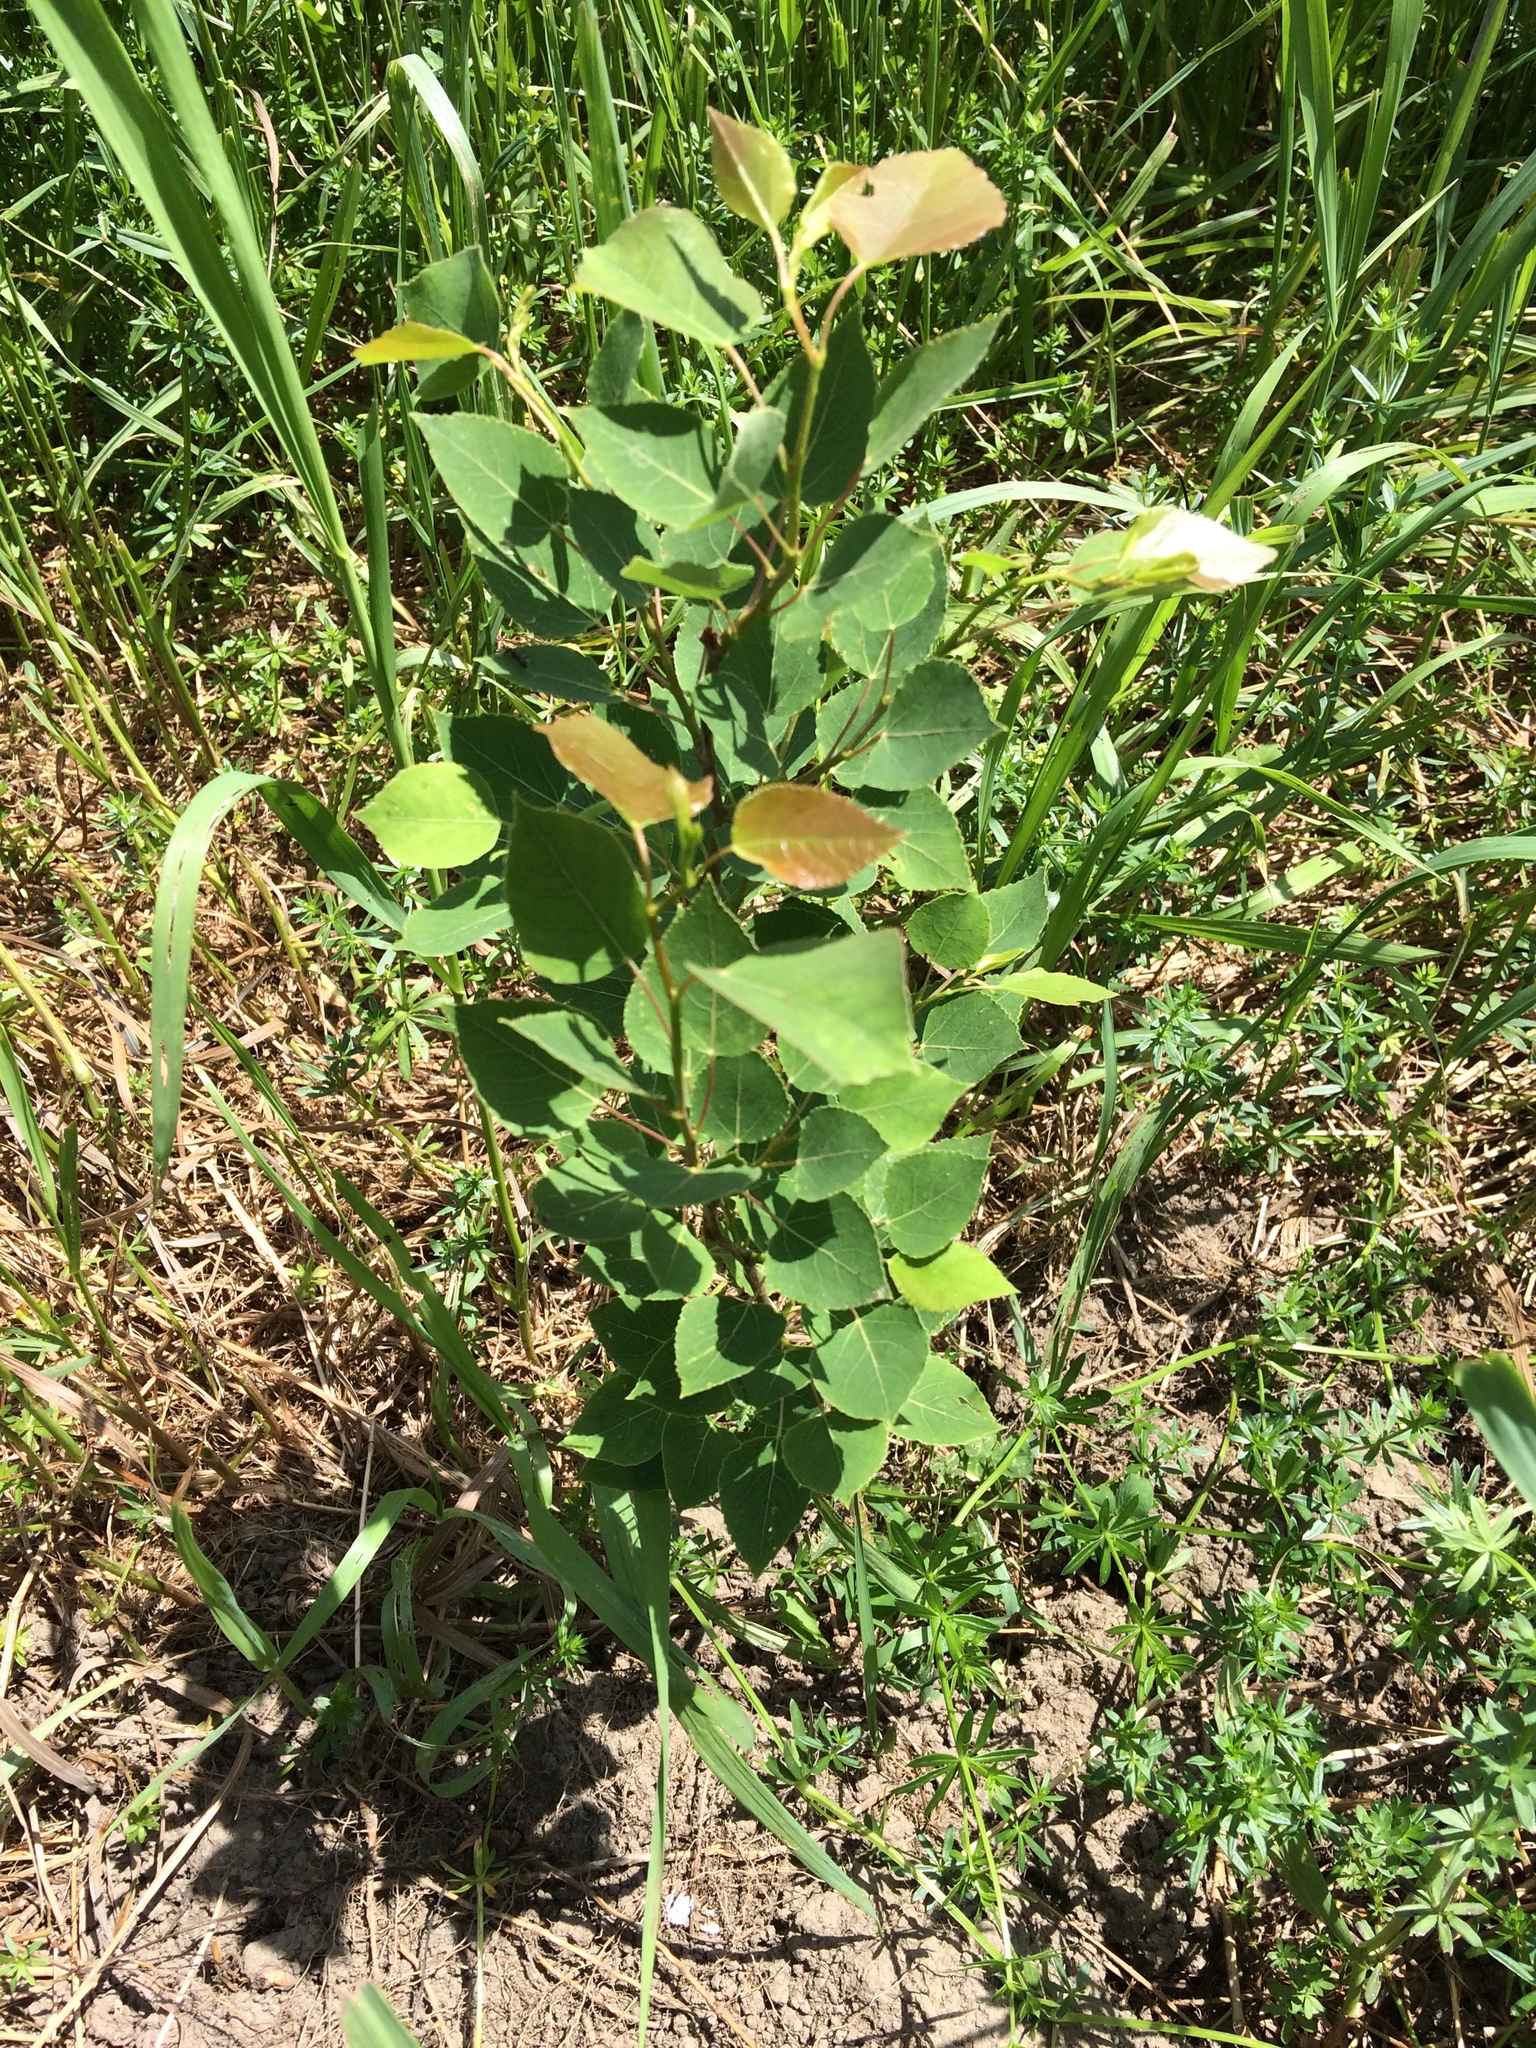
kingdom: Plantae
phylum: Tracheophyta
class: Magnoliopsida
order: Malpighiales
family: Salicaceae
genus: Populus
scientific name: Populus tremuloides
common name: Quaking aspen
